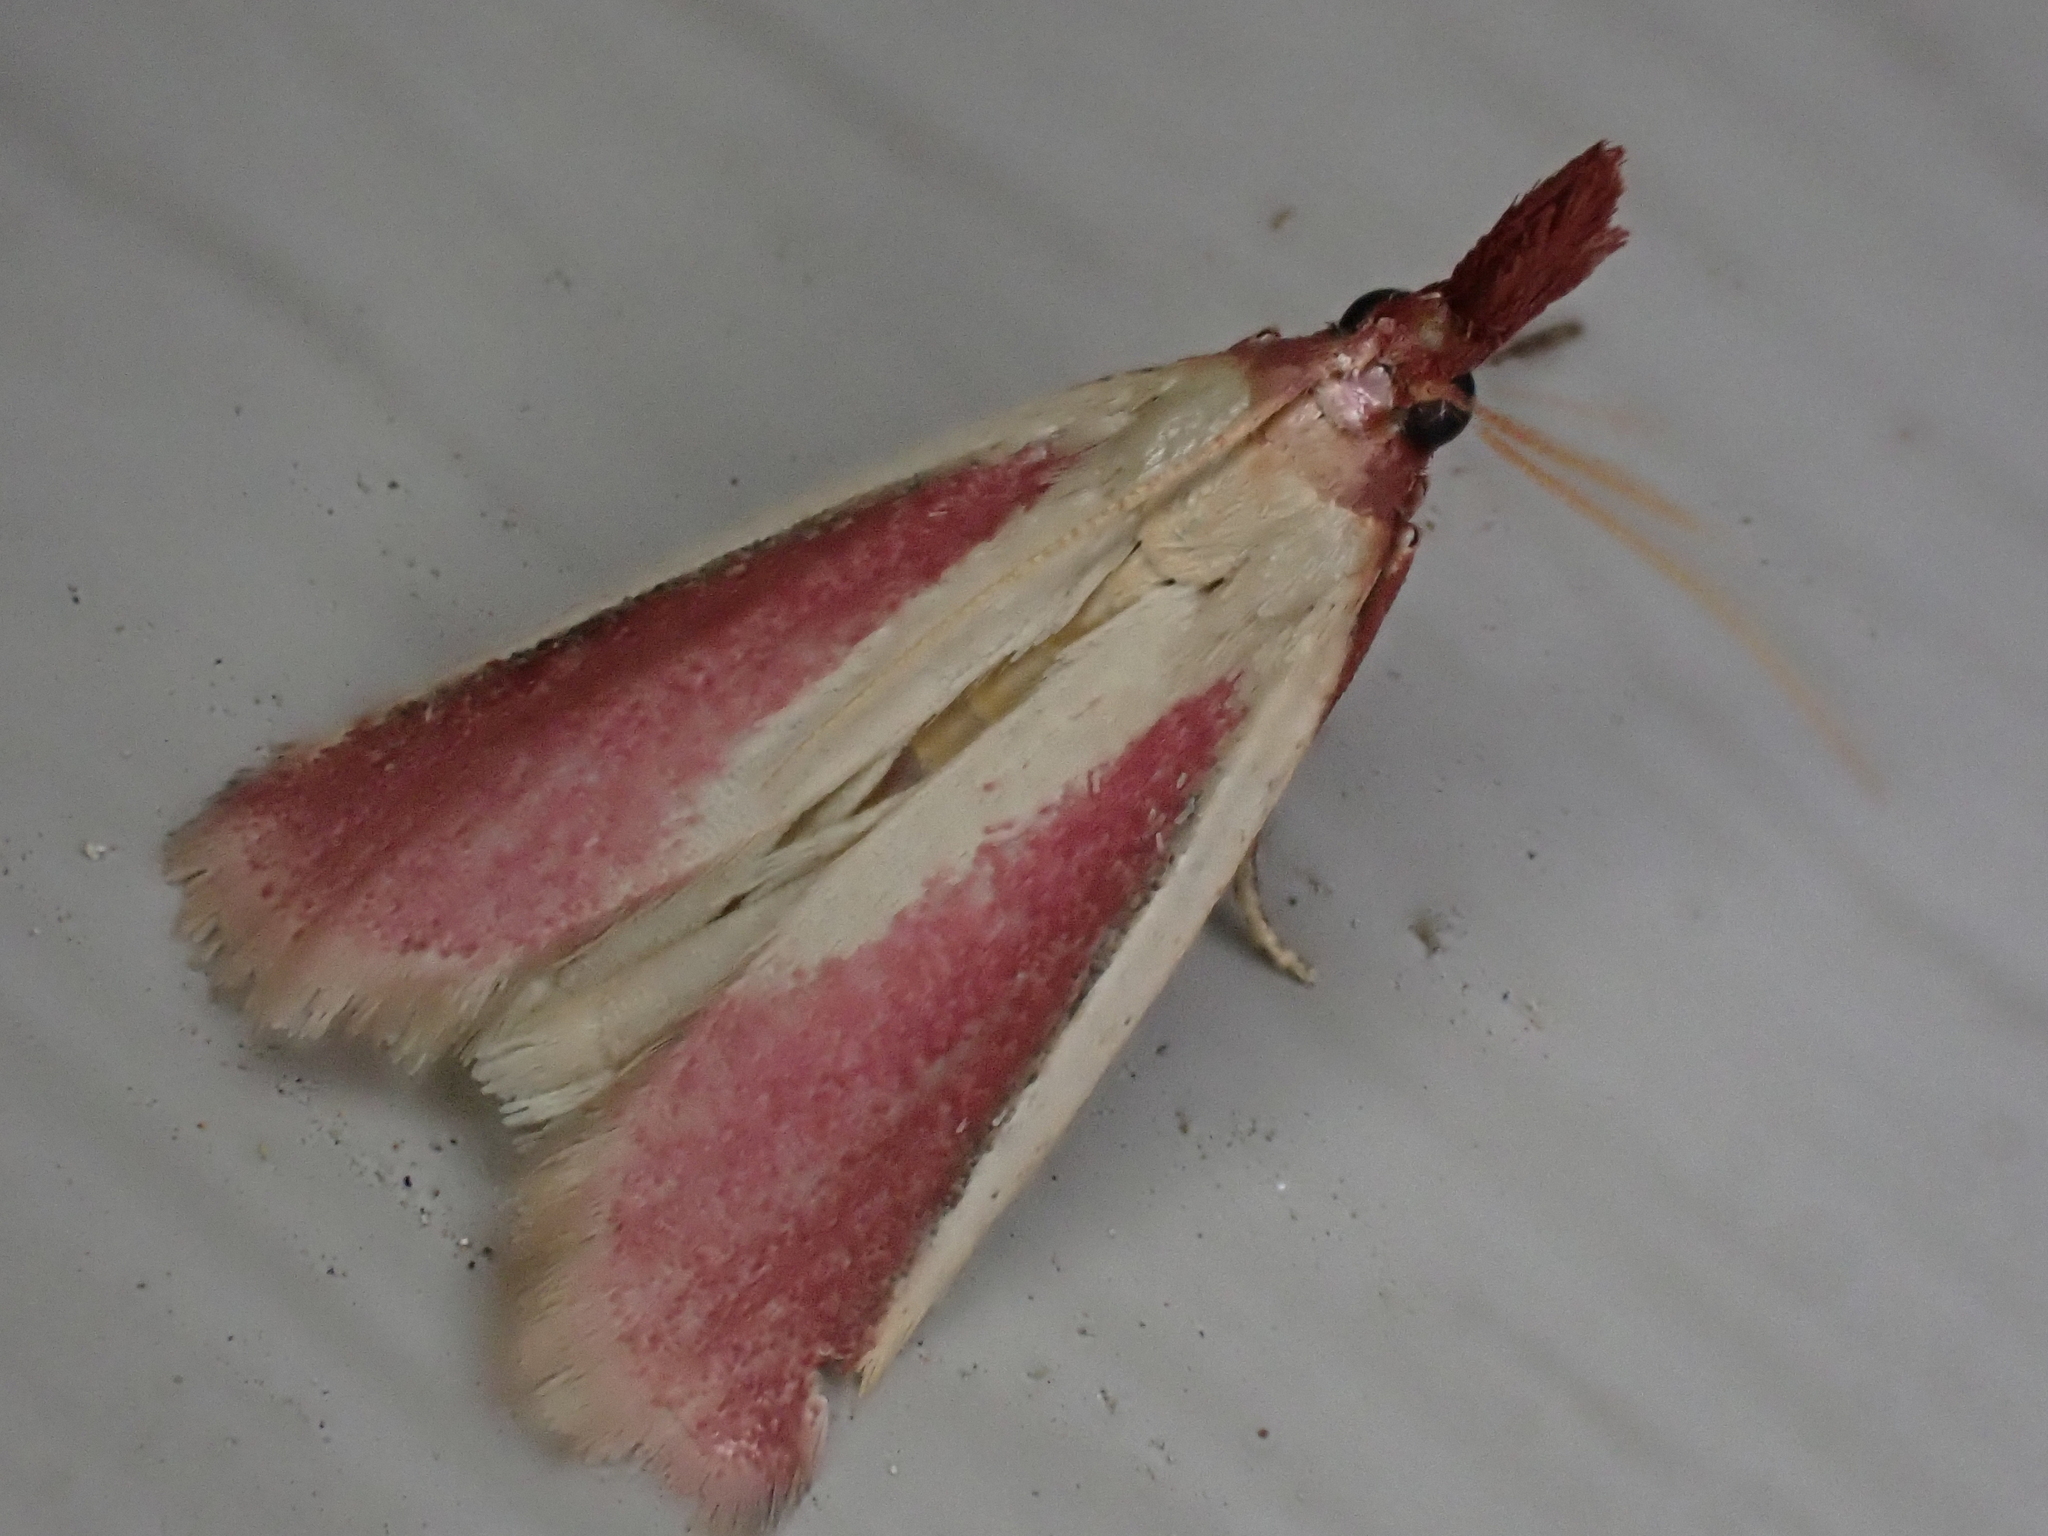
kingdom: Animalia
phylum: Arthropoda
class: Insecta
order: Lepidoptera
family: Pyralidae
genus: Peoria
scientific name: Peoria approximella
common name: Carmine snout
